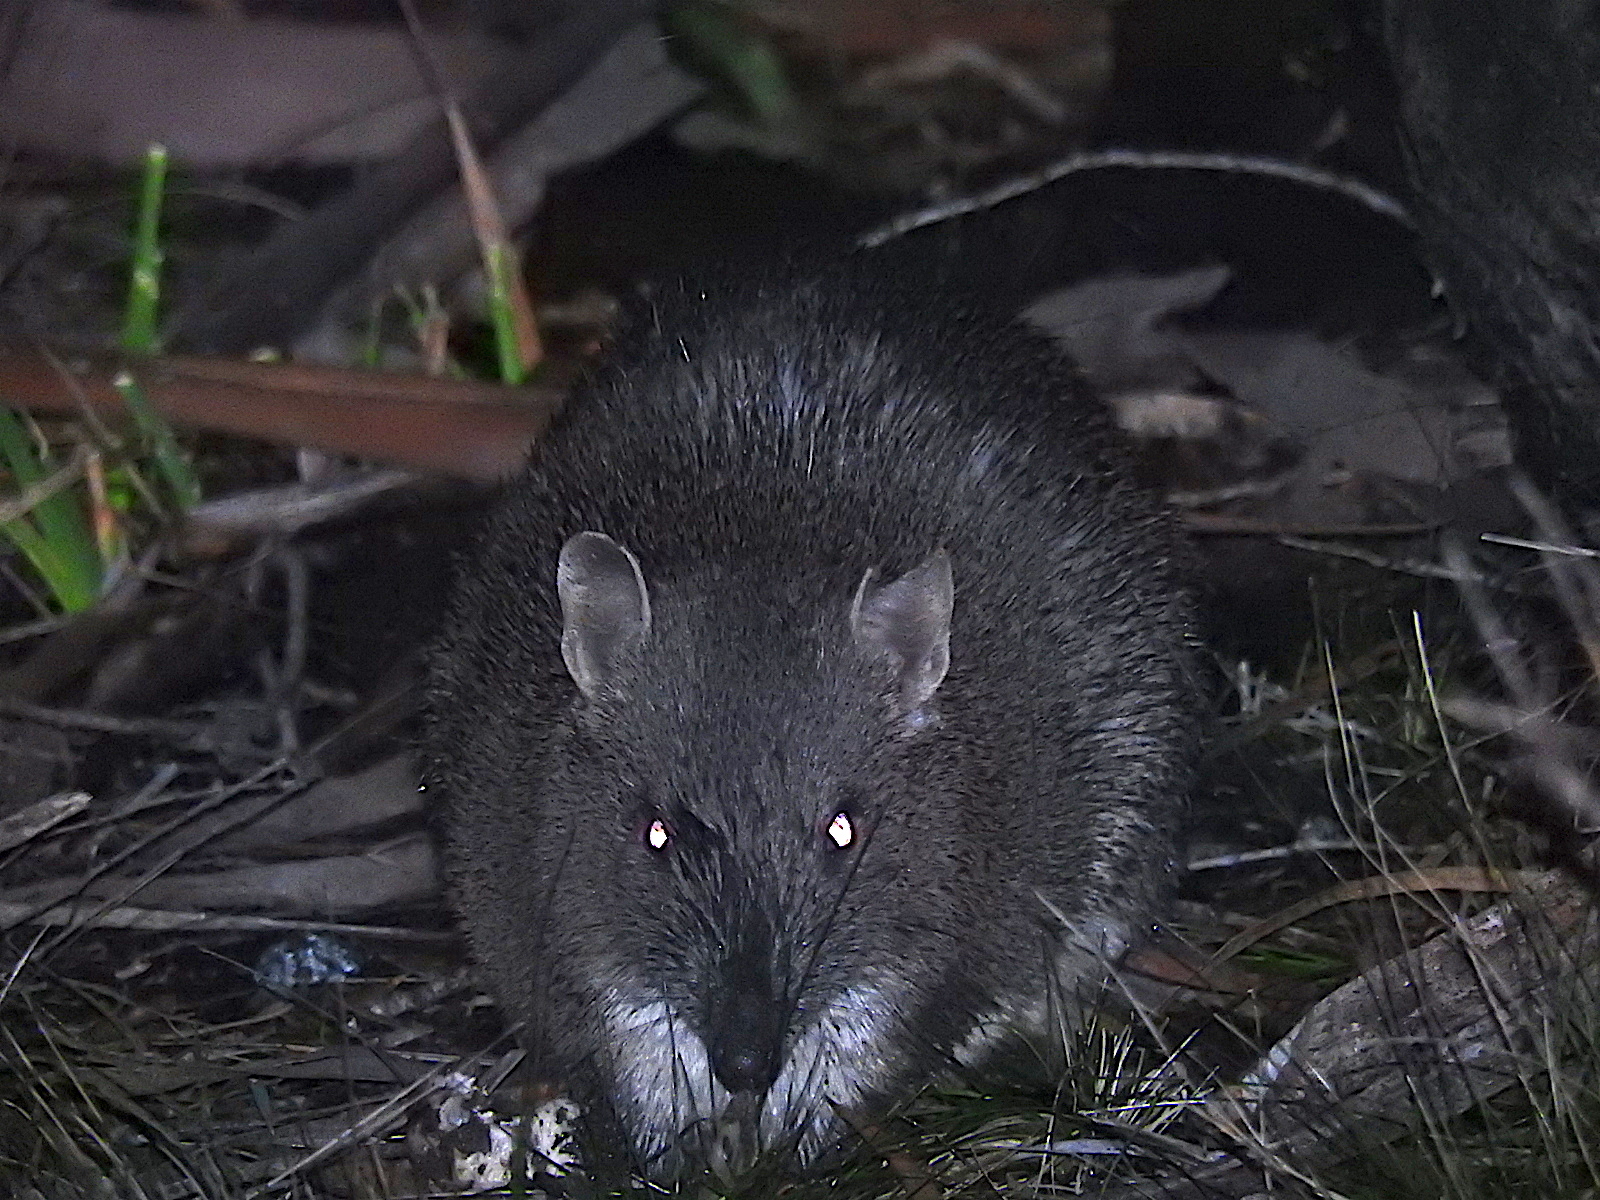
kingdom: Animalia
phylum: Chordata
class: Mammalia
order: Peramelemorphia
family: Peramelidae
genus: Isoodon
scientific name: Isoodon obesulus
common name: Southern brown bandicoot
